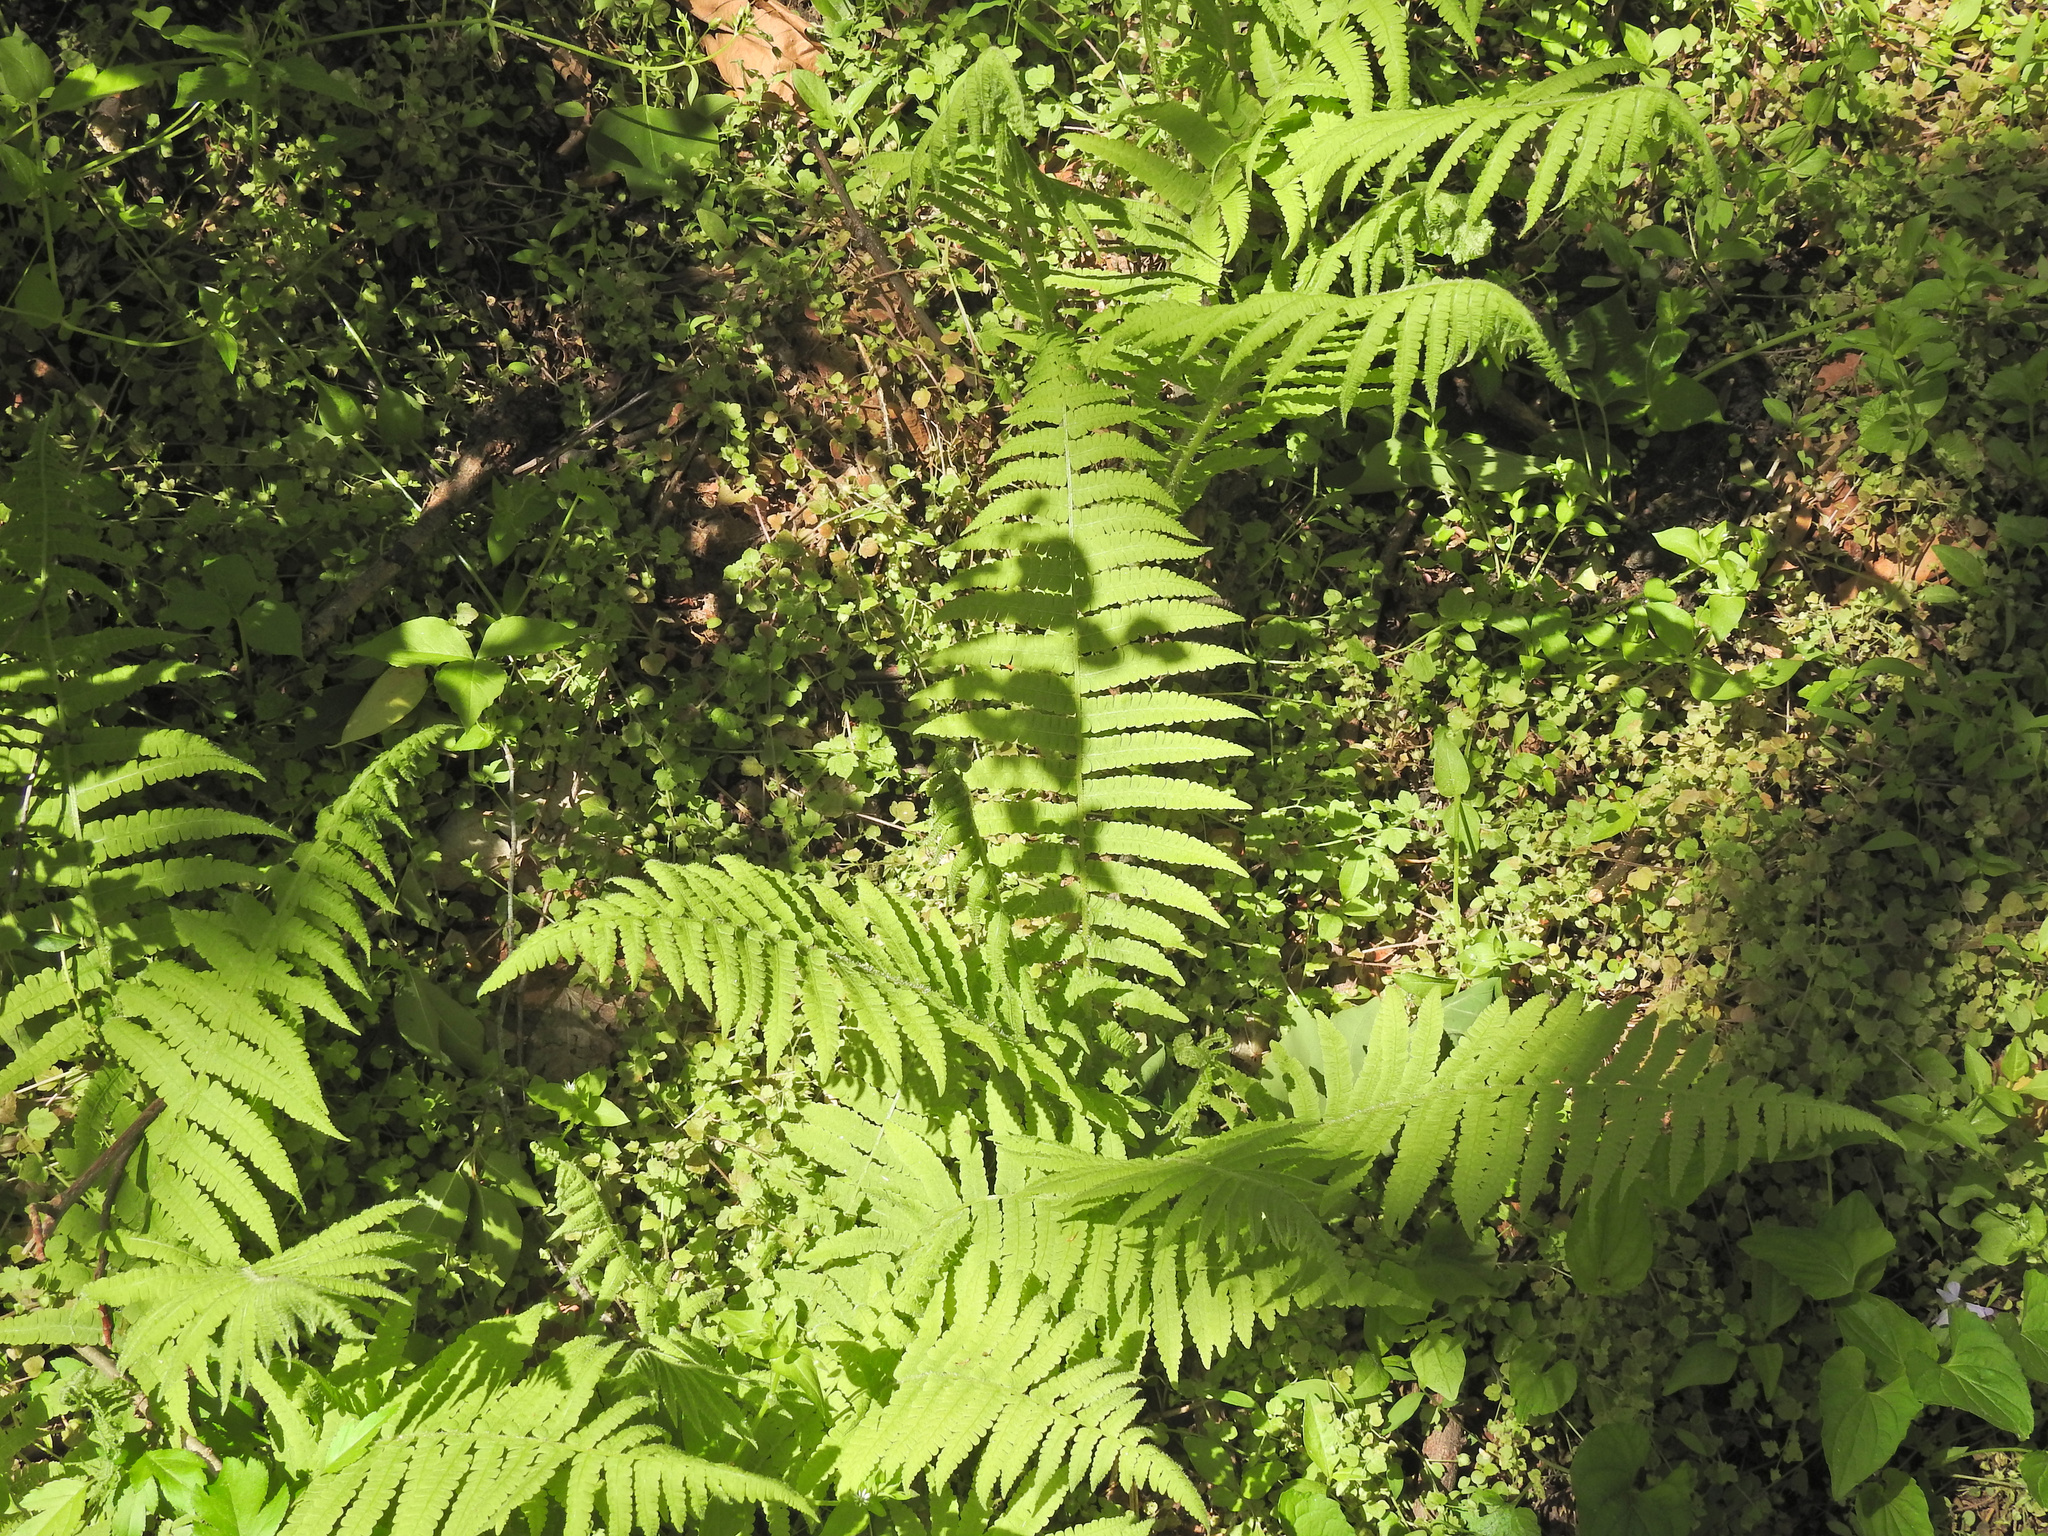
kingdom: Plantae
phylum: Tracheophyta
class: Polypodiopsida
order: Polypodiales
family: Athyriaceae
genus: Deparia
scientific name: Deparia acrostichoides
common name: Silver false spleenwort
